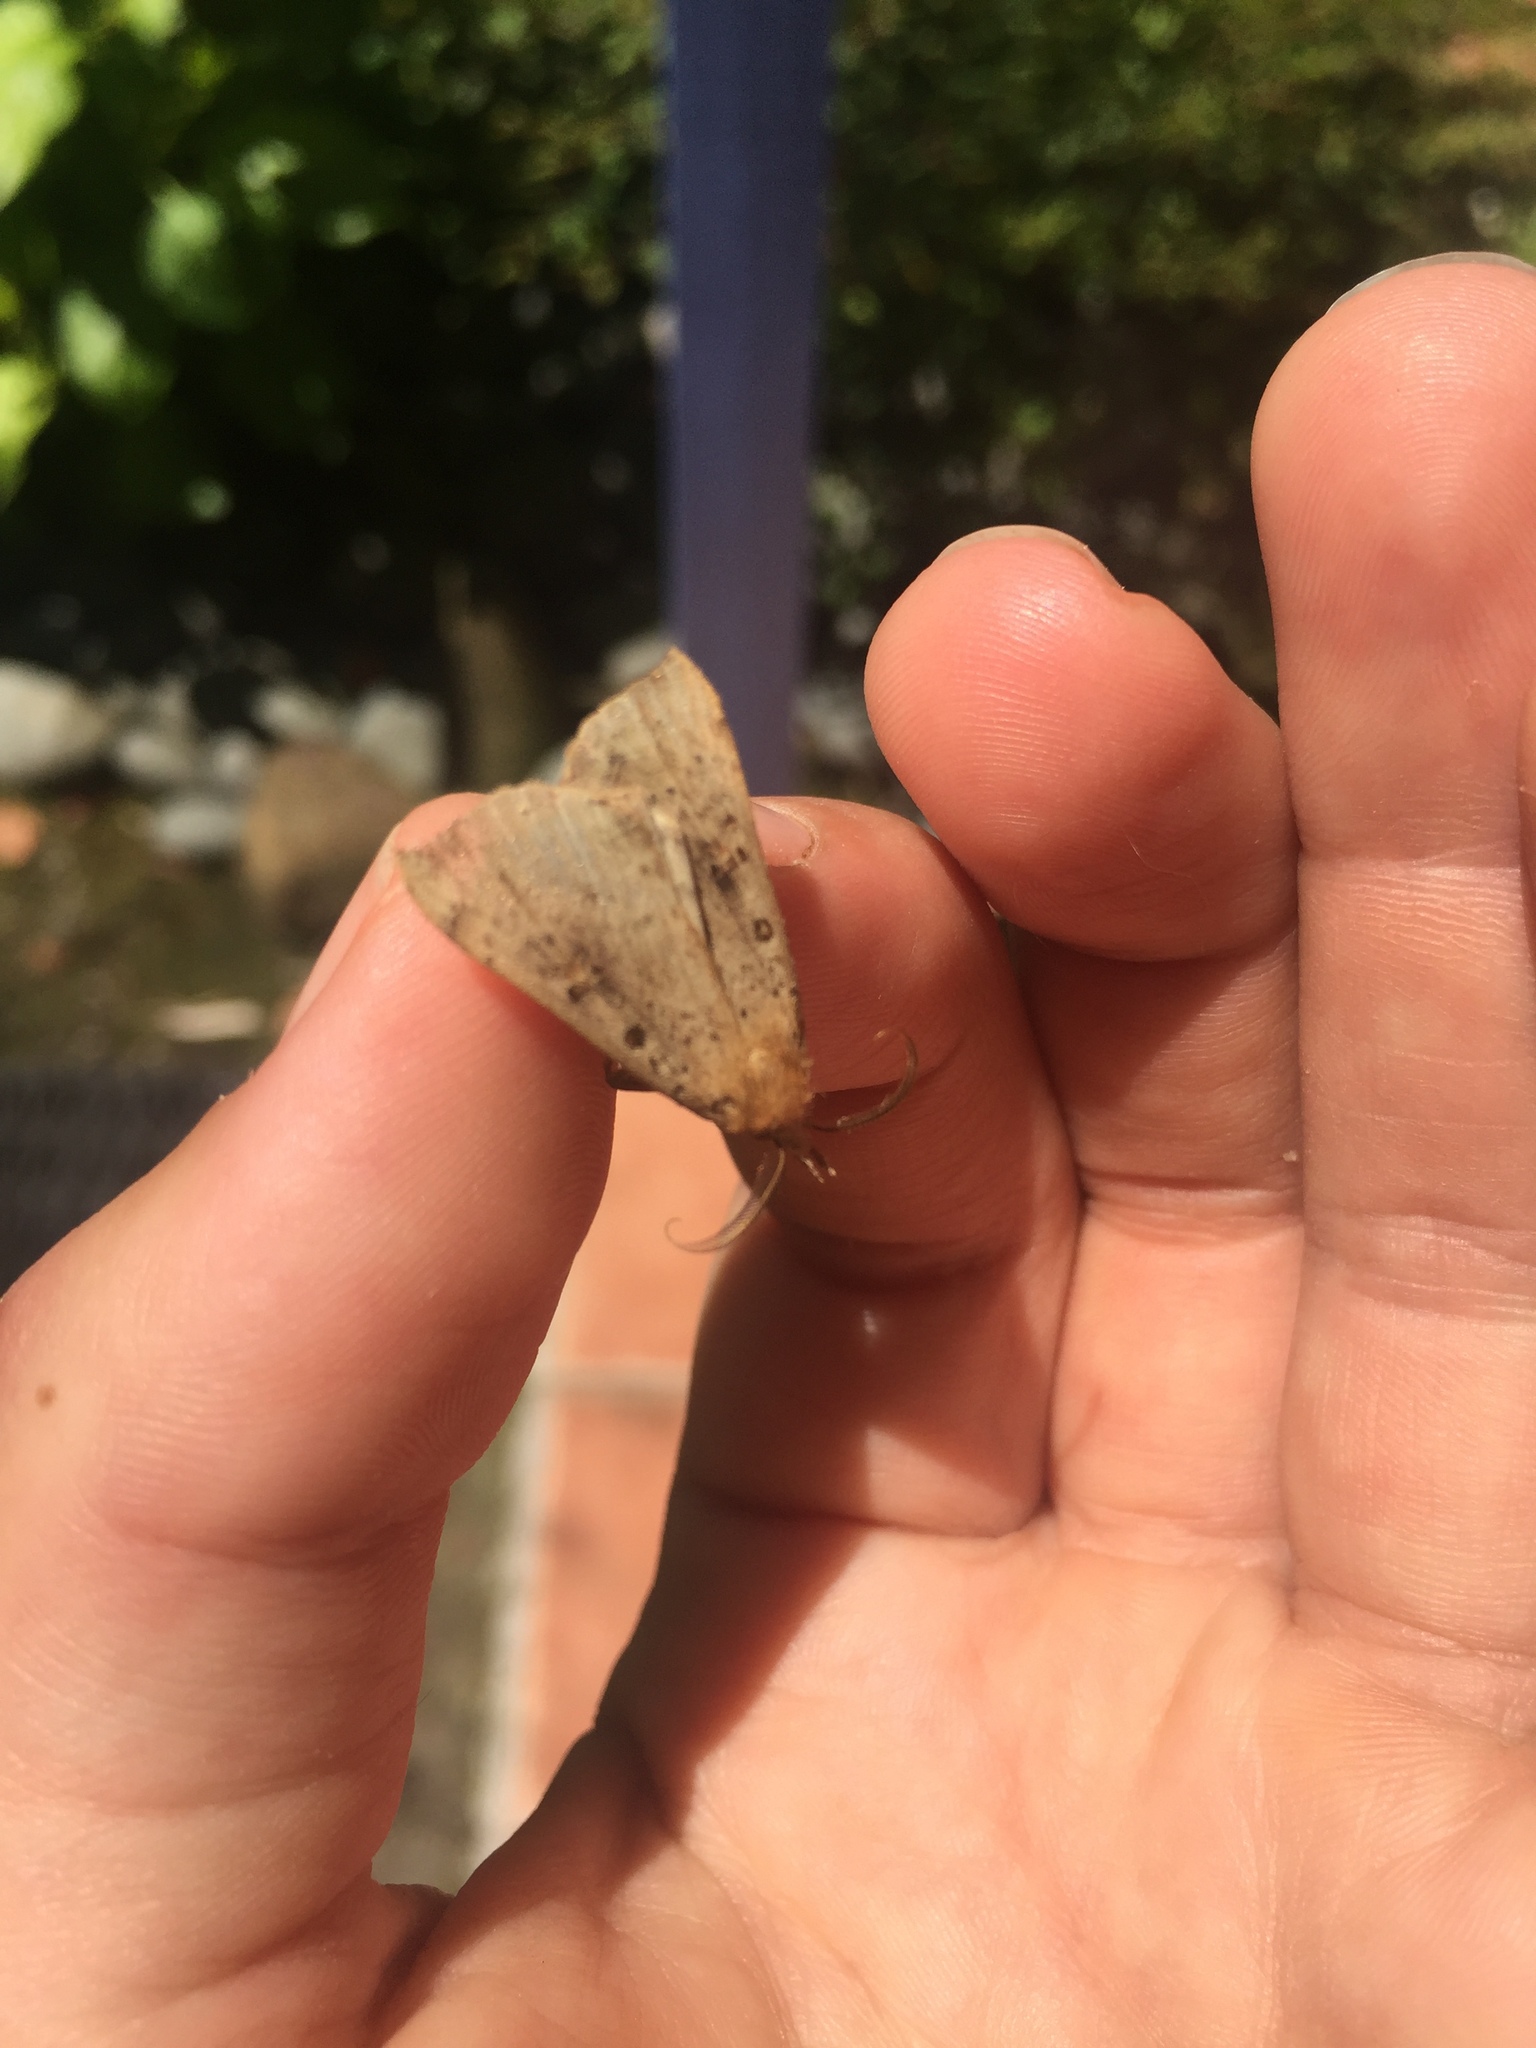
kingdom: Animalia
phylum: Arthropoda
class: Insecta
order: Lepidoptera
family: Erebidae
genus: Rhapsa
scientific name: Rhapsa scotosialis
